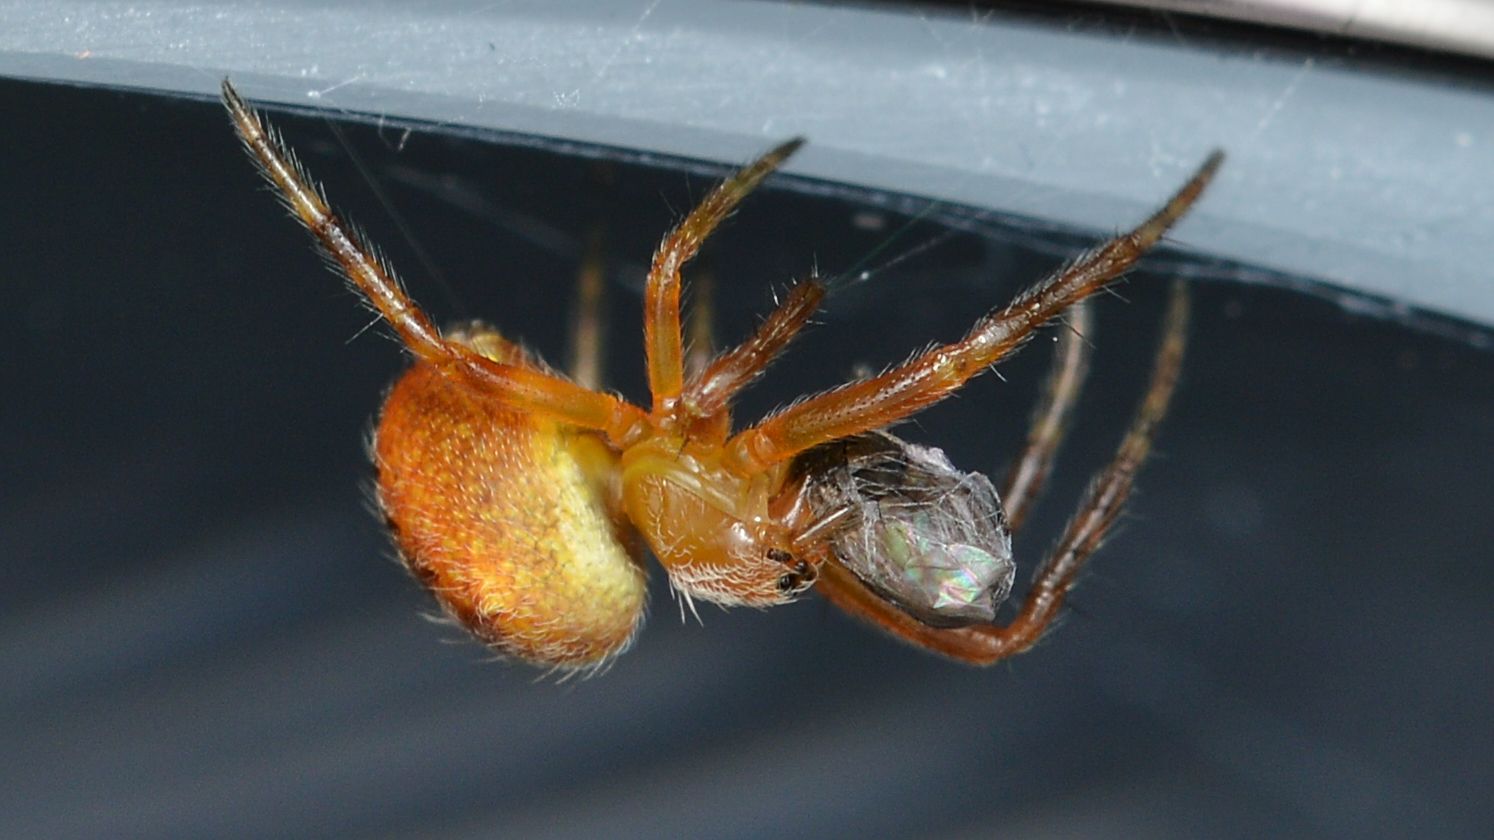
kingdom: Animalia
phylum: Arthropoda
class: Arachnida
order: Araneae
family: Araneidae
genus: Araneus
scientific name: Araneus diadematus
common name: Cross orbweaver
